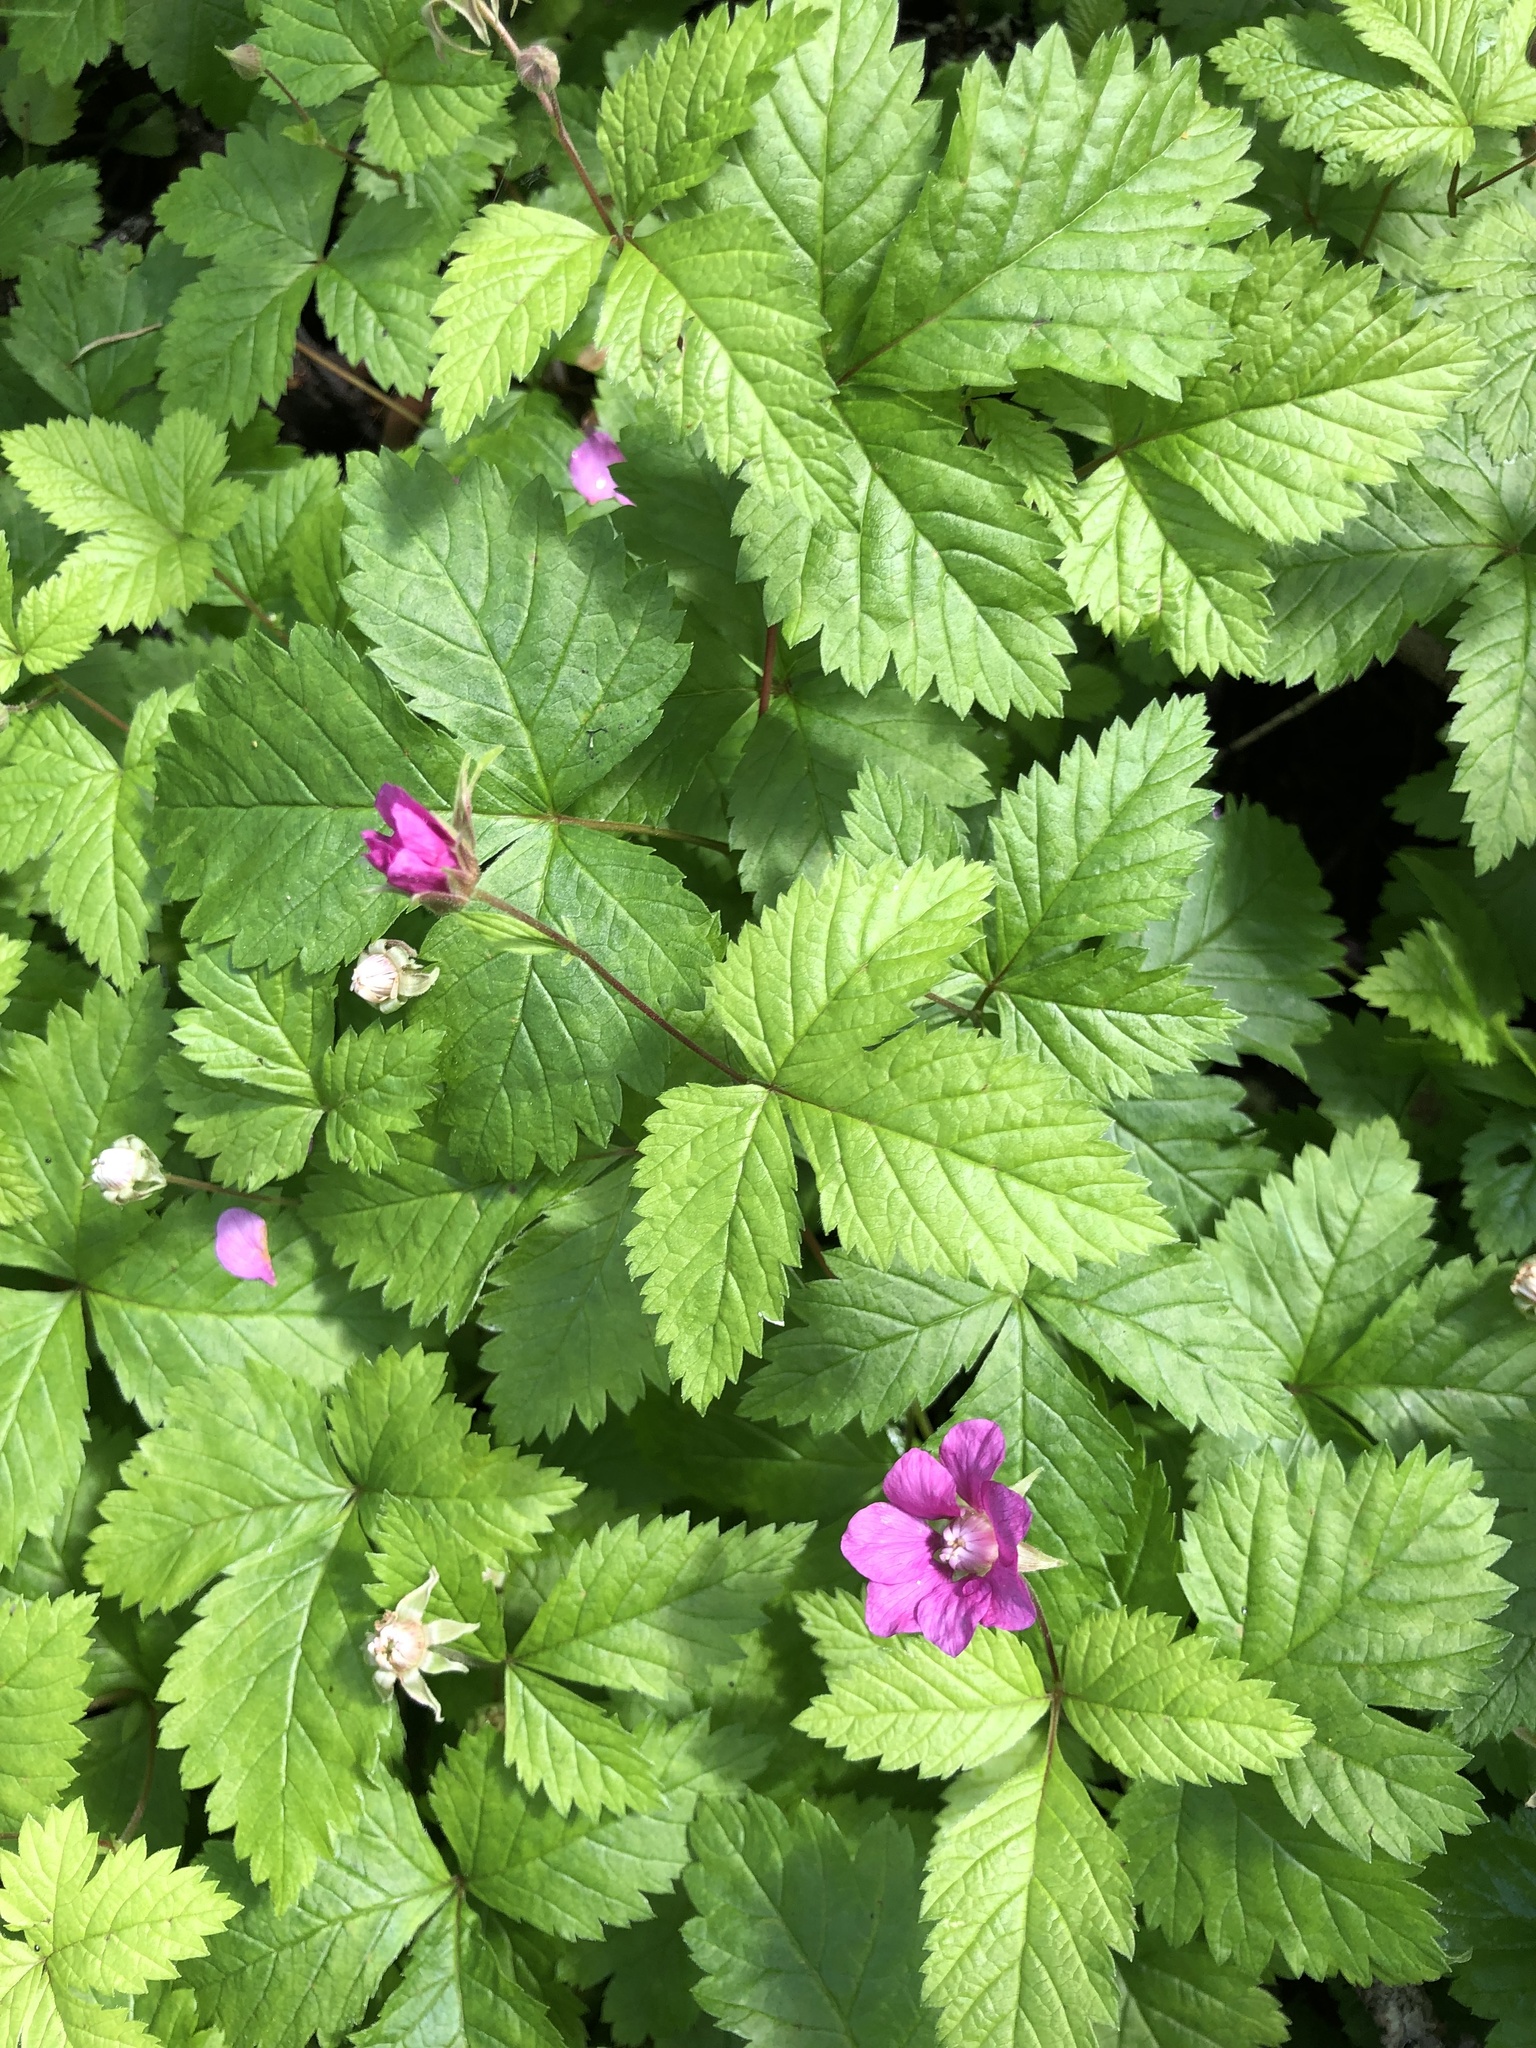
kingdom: Plantae
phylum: Tracheophyta
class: Magnoliopsida
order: Rosales
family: Rosaceae
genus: Rubus
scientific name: Rubus arcticus
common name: Arctic bramble
